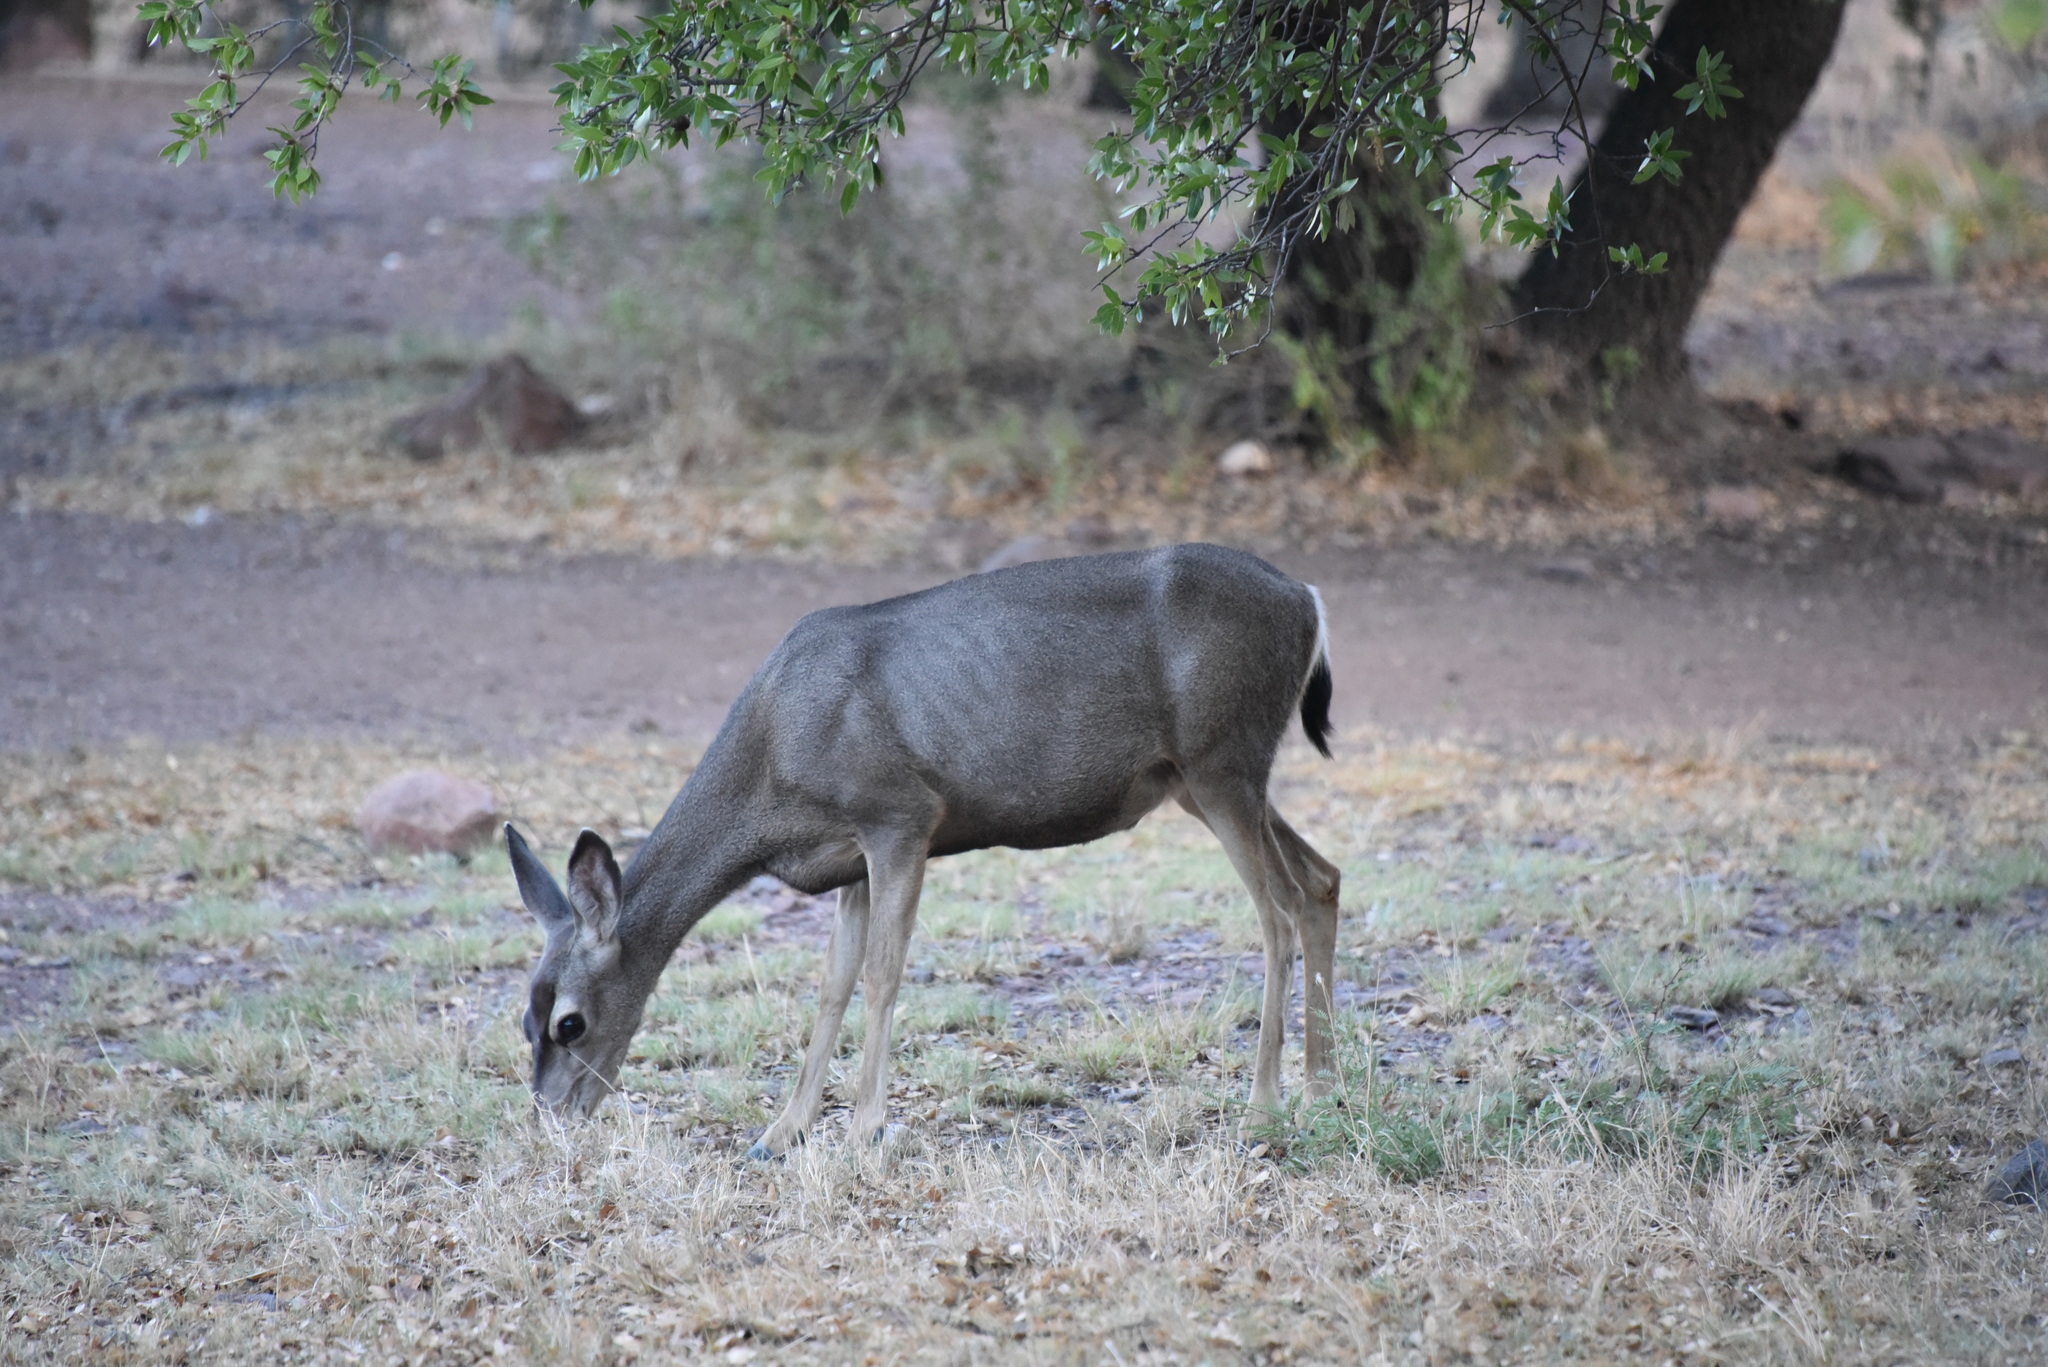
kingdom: Animalia
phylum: Chordata
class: Mammalia
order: Artiodactyla
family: Cervidae
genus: Odocoileus
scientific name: Odocoileus hemionus
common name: Mule deer
